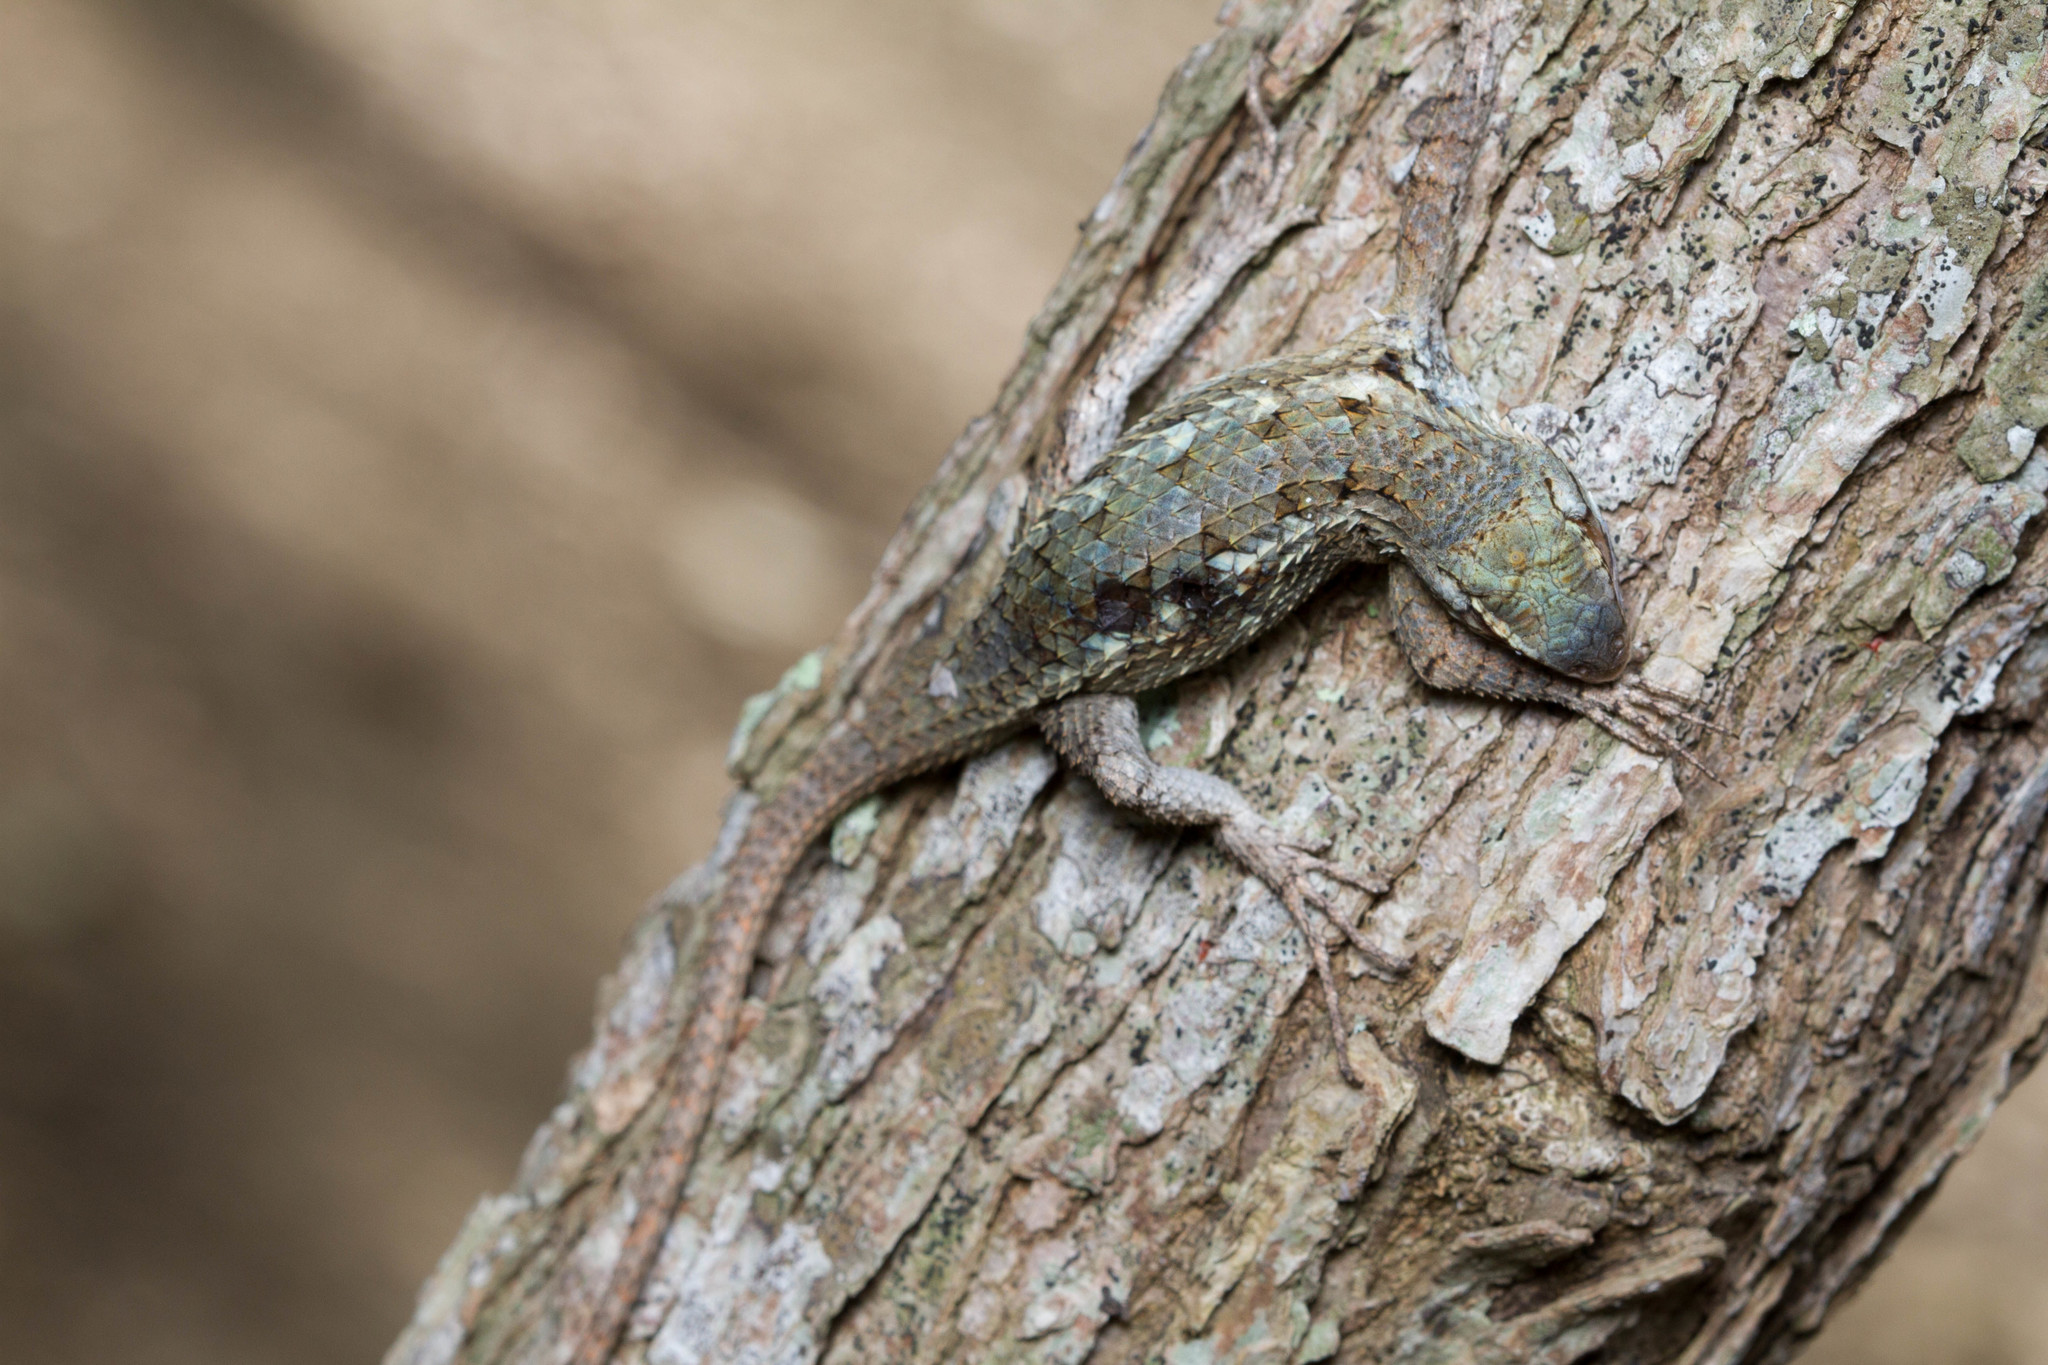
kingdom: Animalia
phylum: Chordata
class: Squamata
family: Phrynosomatidae
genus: Sceloporus
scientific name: Sceloporus olivaceus
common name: Texas spiny lizard
